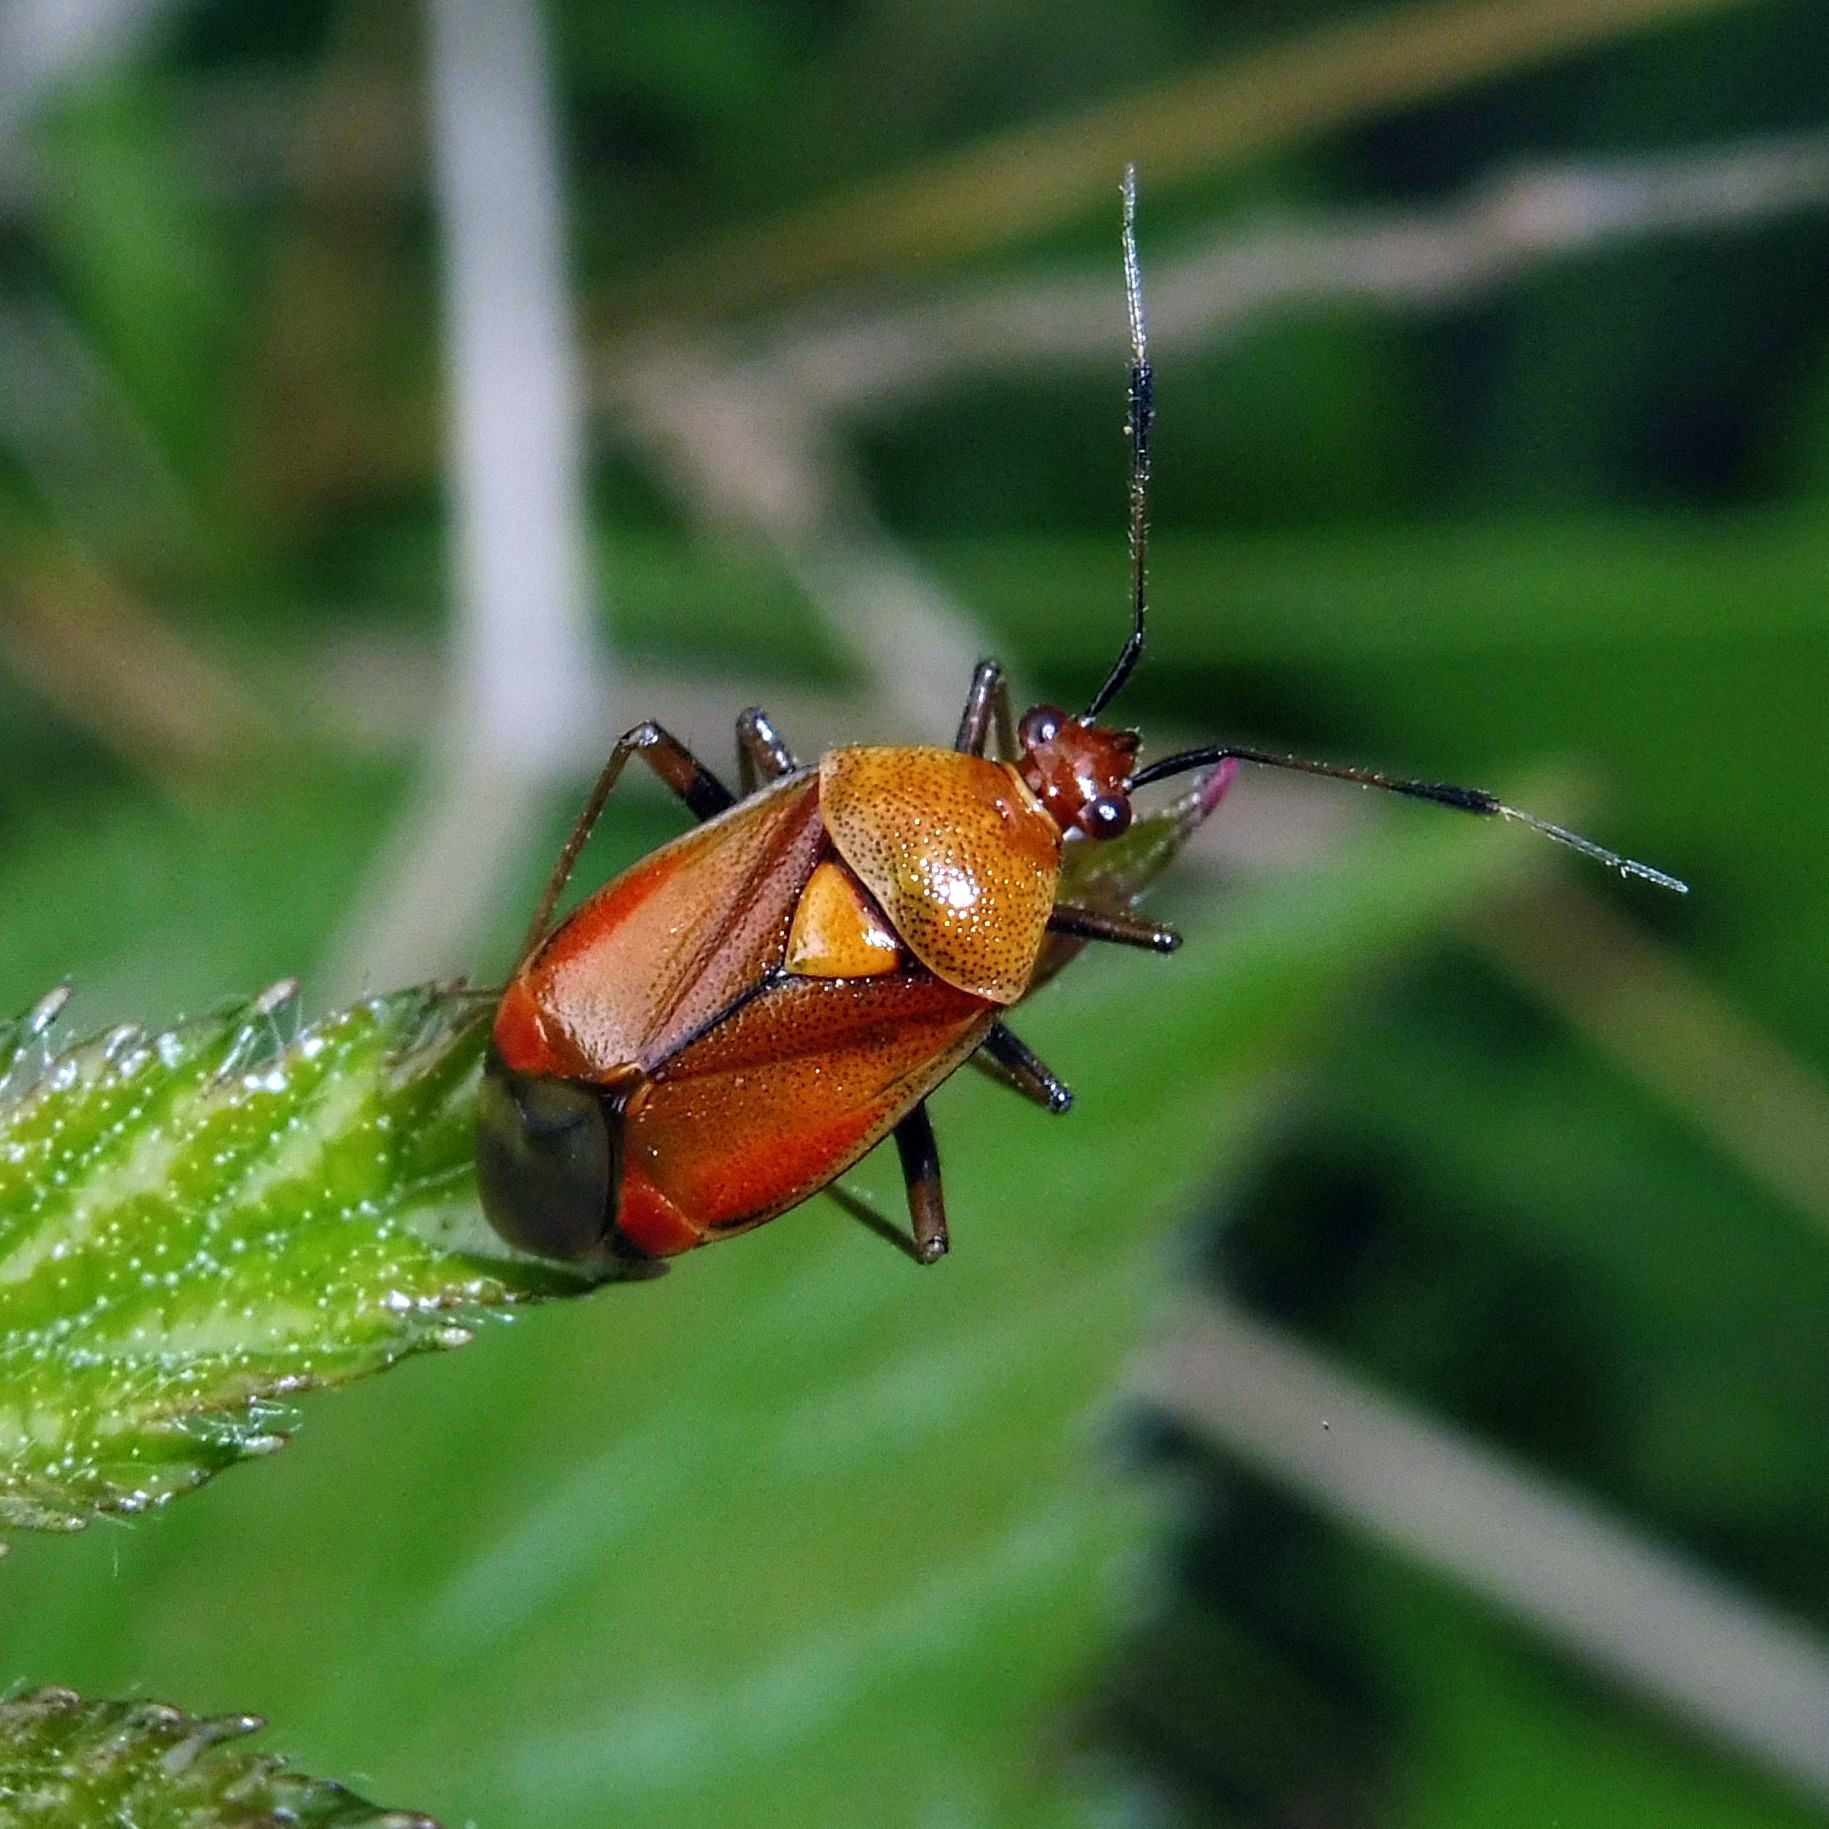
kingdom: Animalia
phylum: Arthropoda
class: Insecta
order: Hemiptera
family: Miridae
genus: Deraeocoris
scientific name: Deraeocoris ruber
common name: Plant bug
